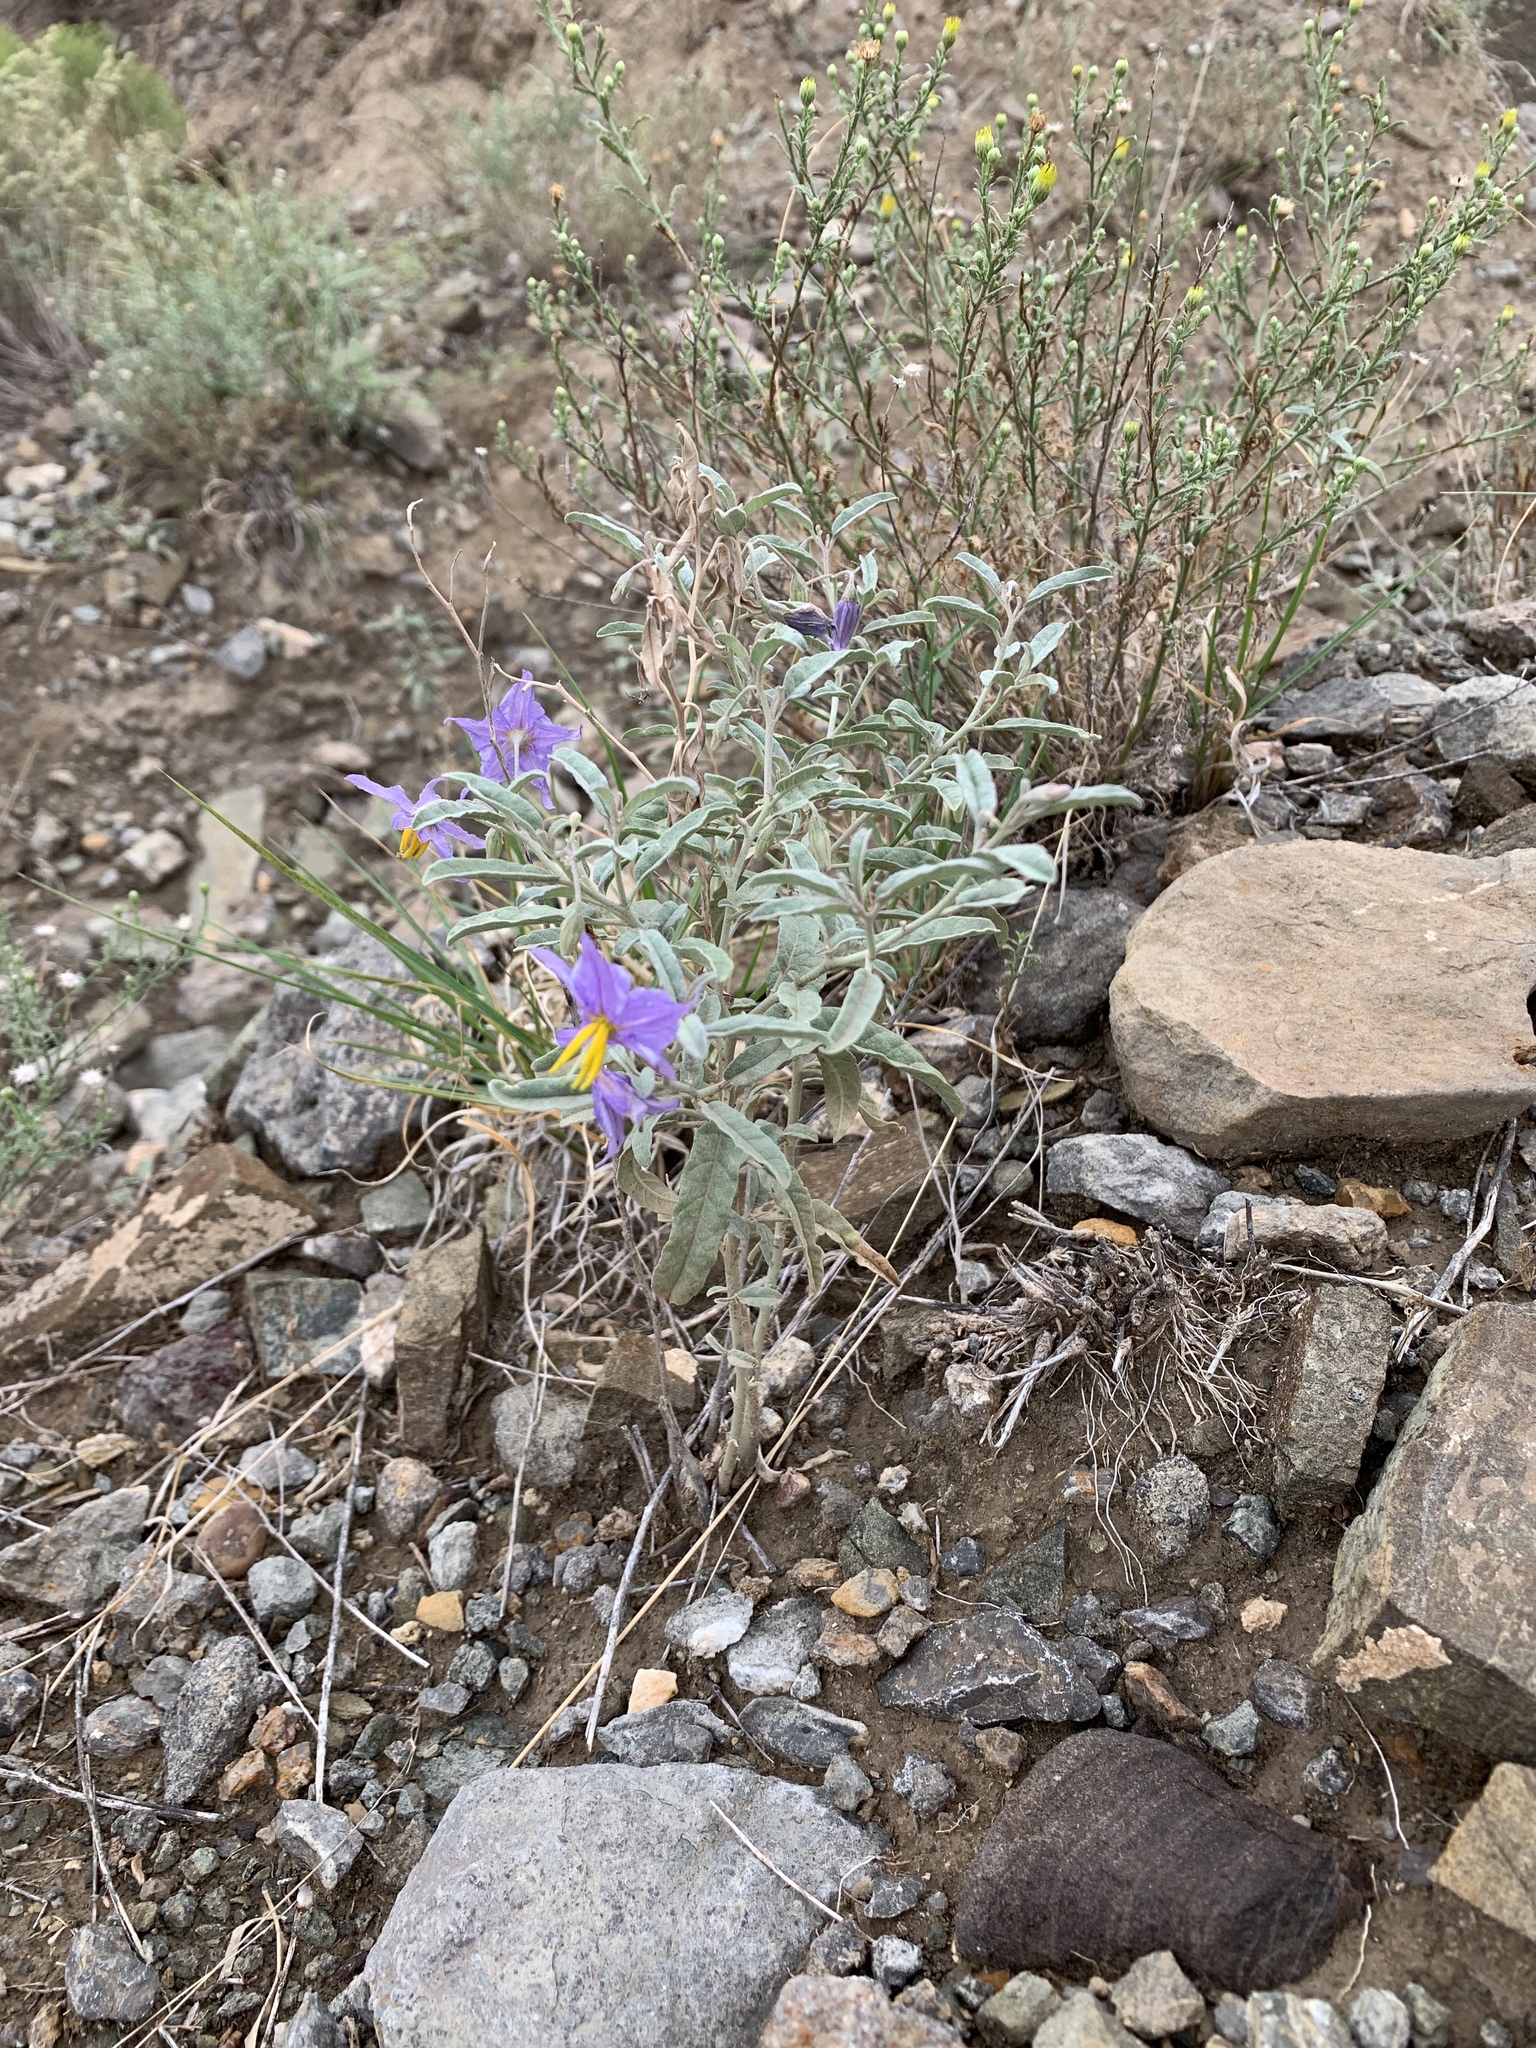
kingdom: Plantae
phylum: Tracheophyta
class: Magnoliopsida
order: Solanales
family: Solanaceae
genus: Solanum
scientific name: Solanum elaeagnifolium
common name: Silverleaf nightshade
